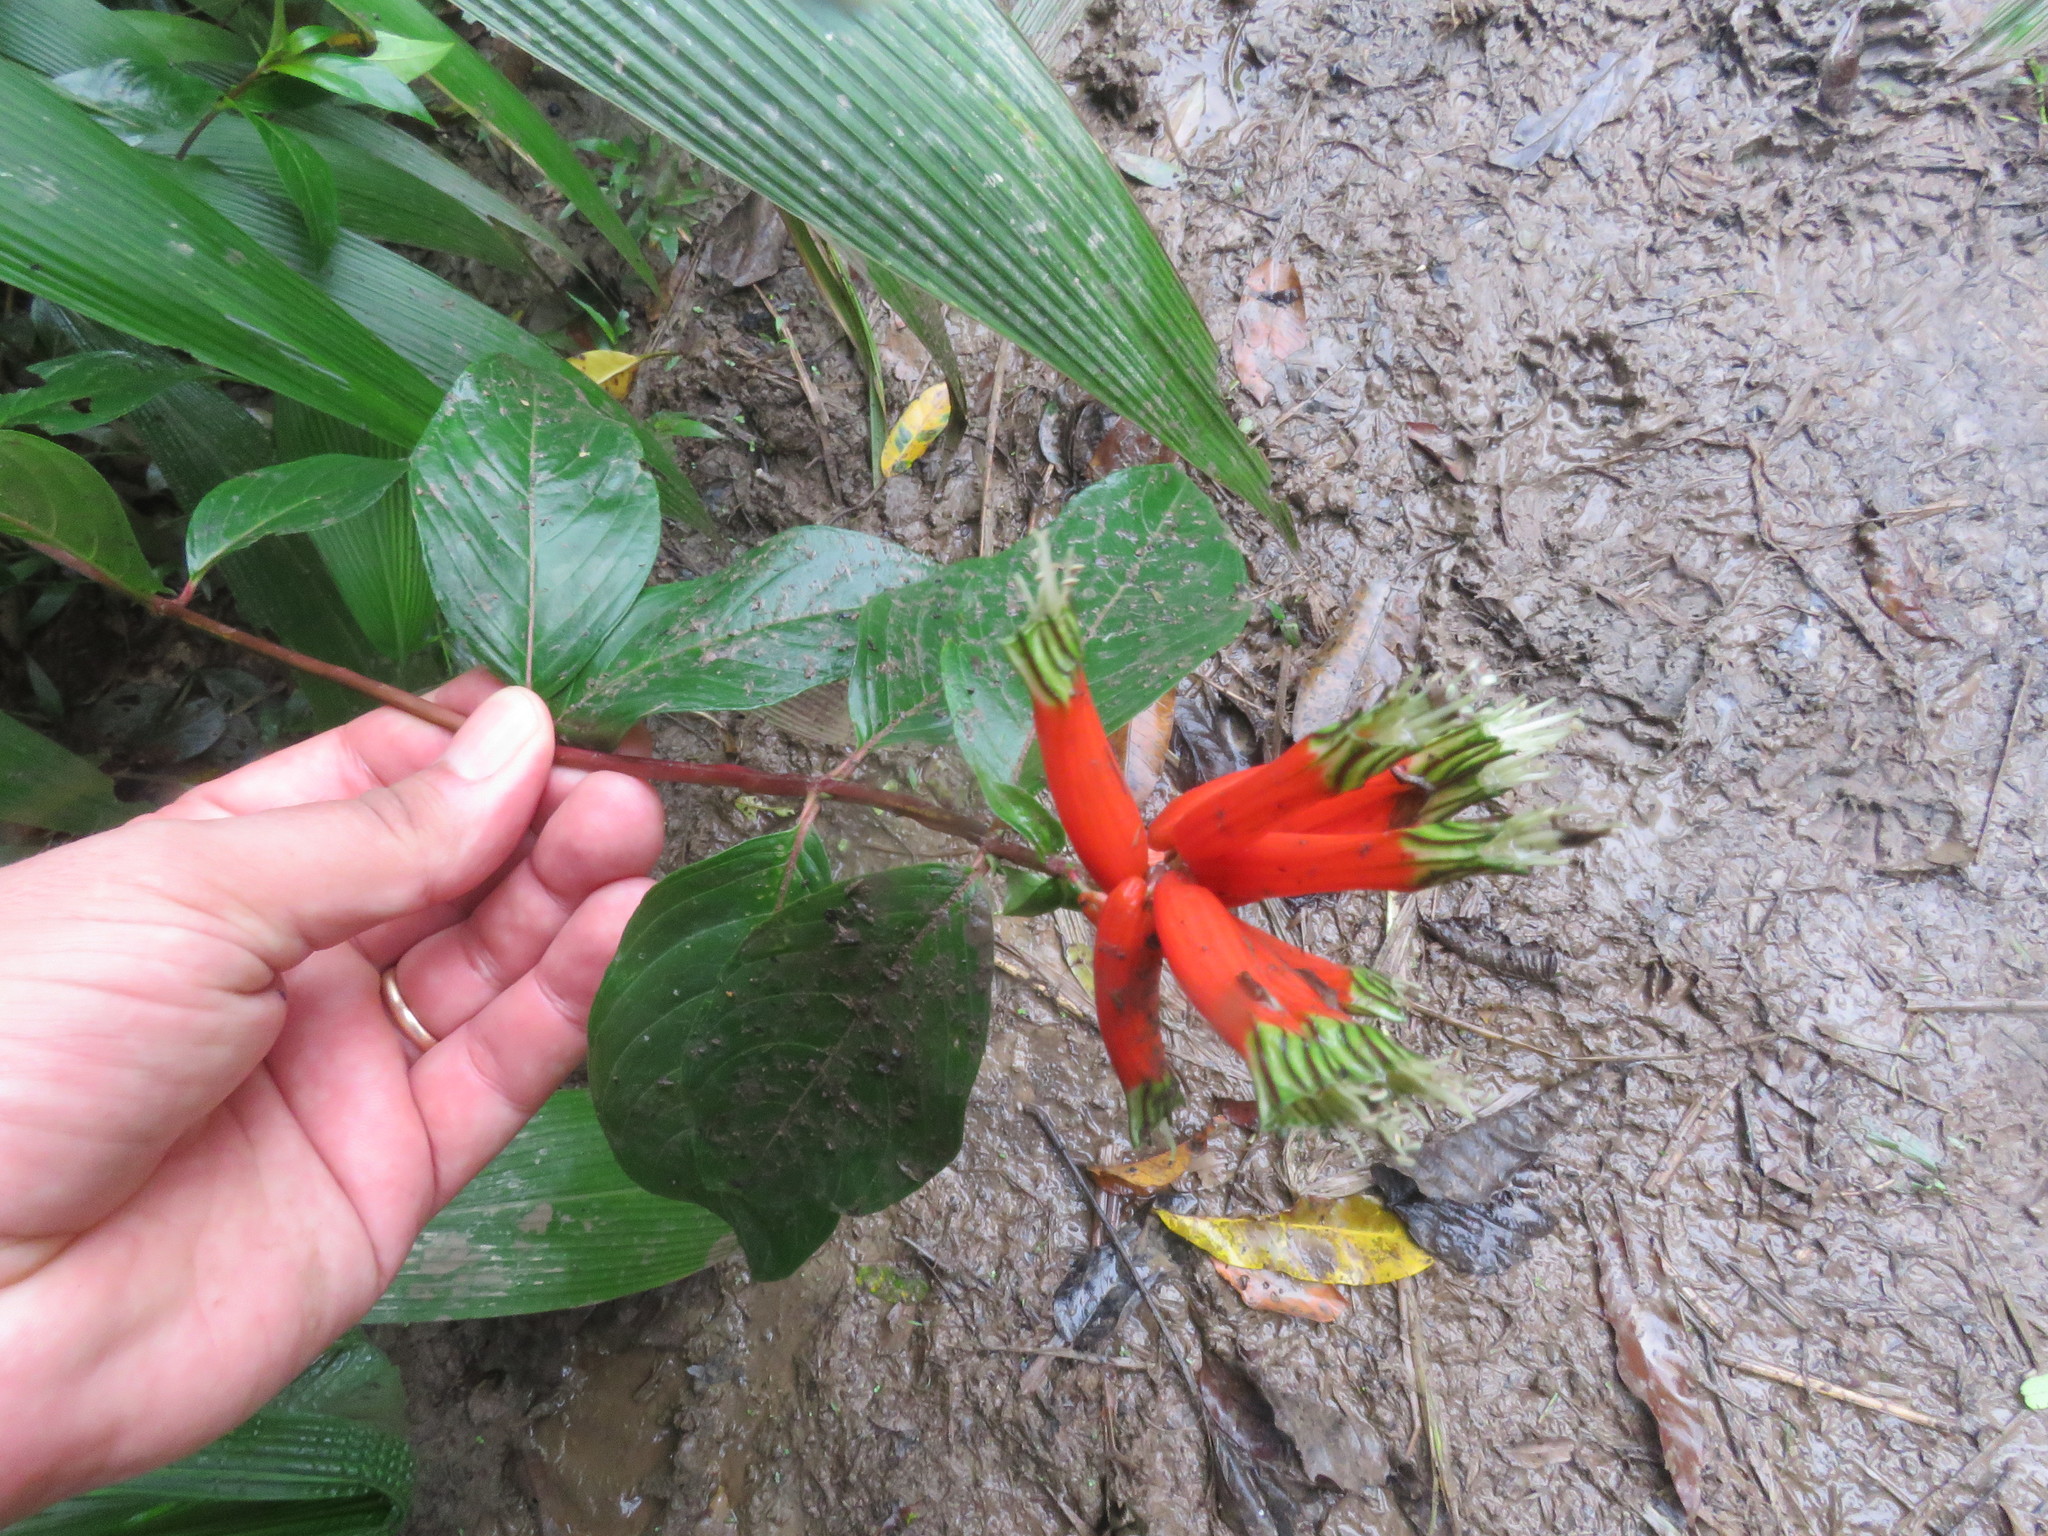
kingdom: Plantae
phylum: Tracheophyta
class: Magnoliopsida
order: Myrtales
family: Lythraceae
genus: Cuphea
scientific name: Cuphea melvilla
